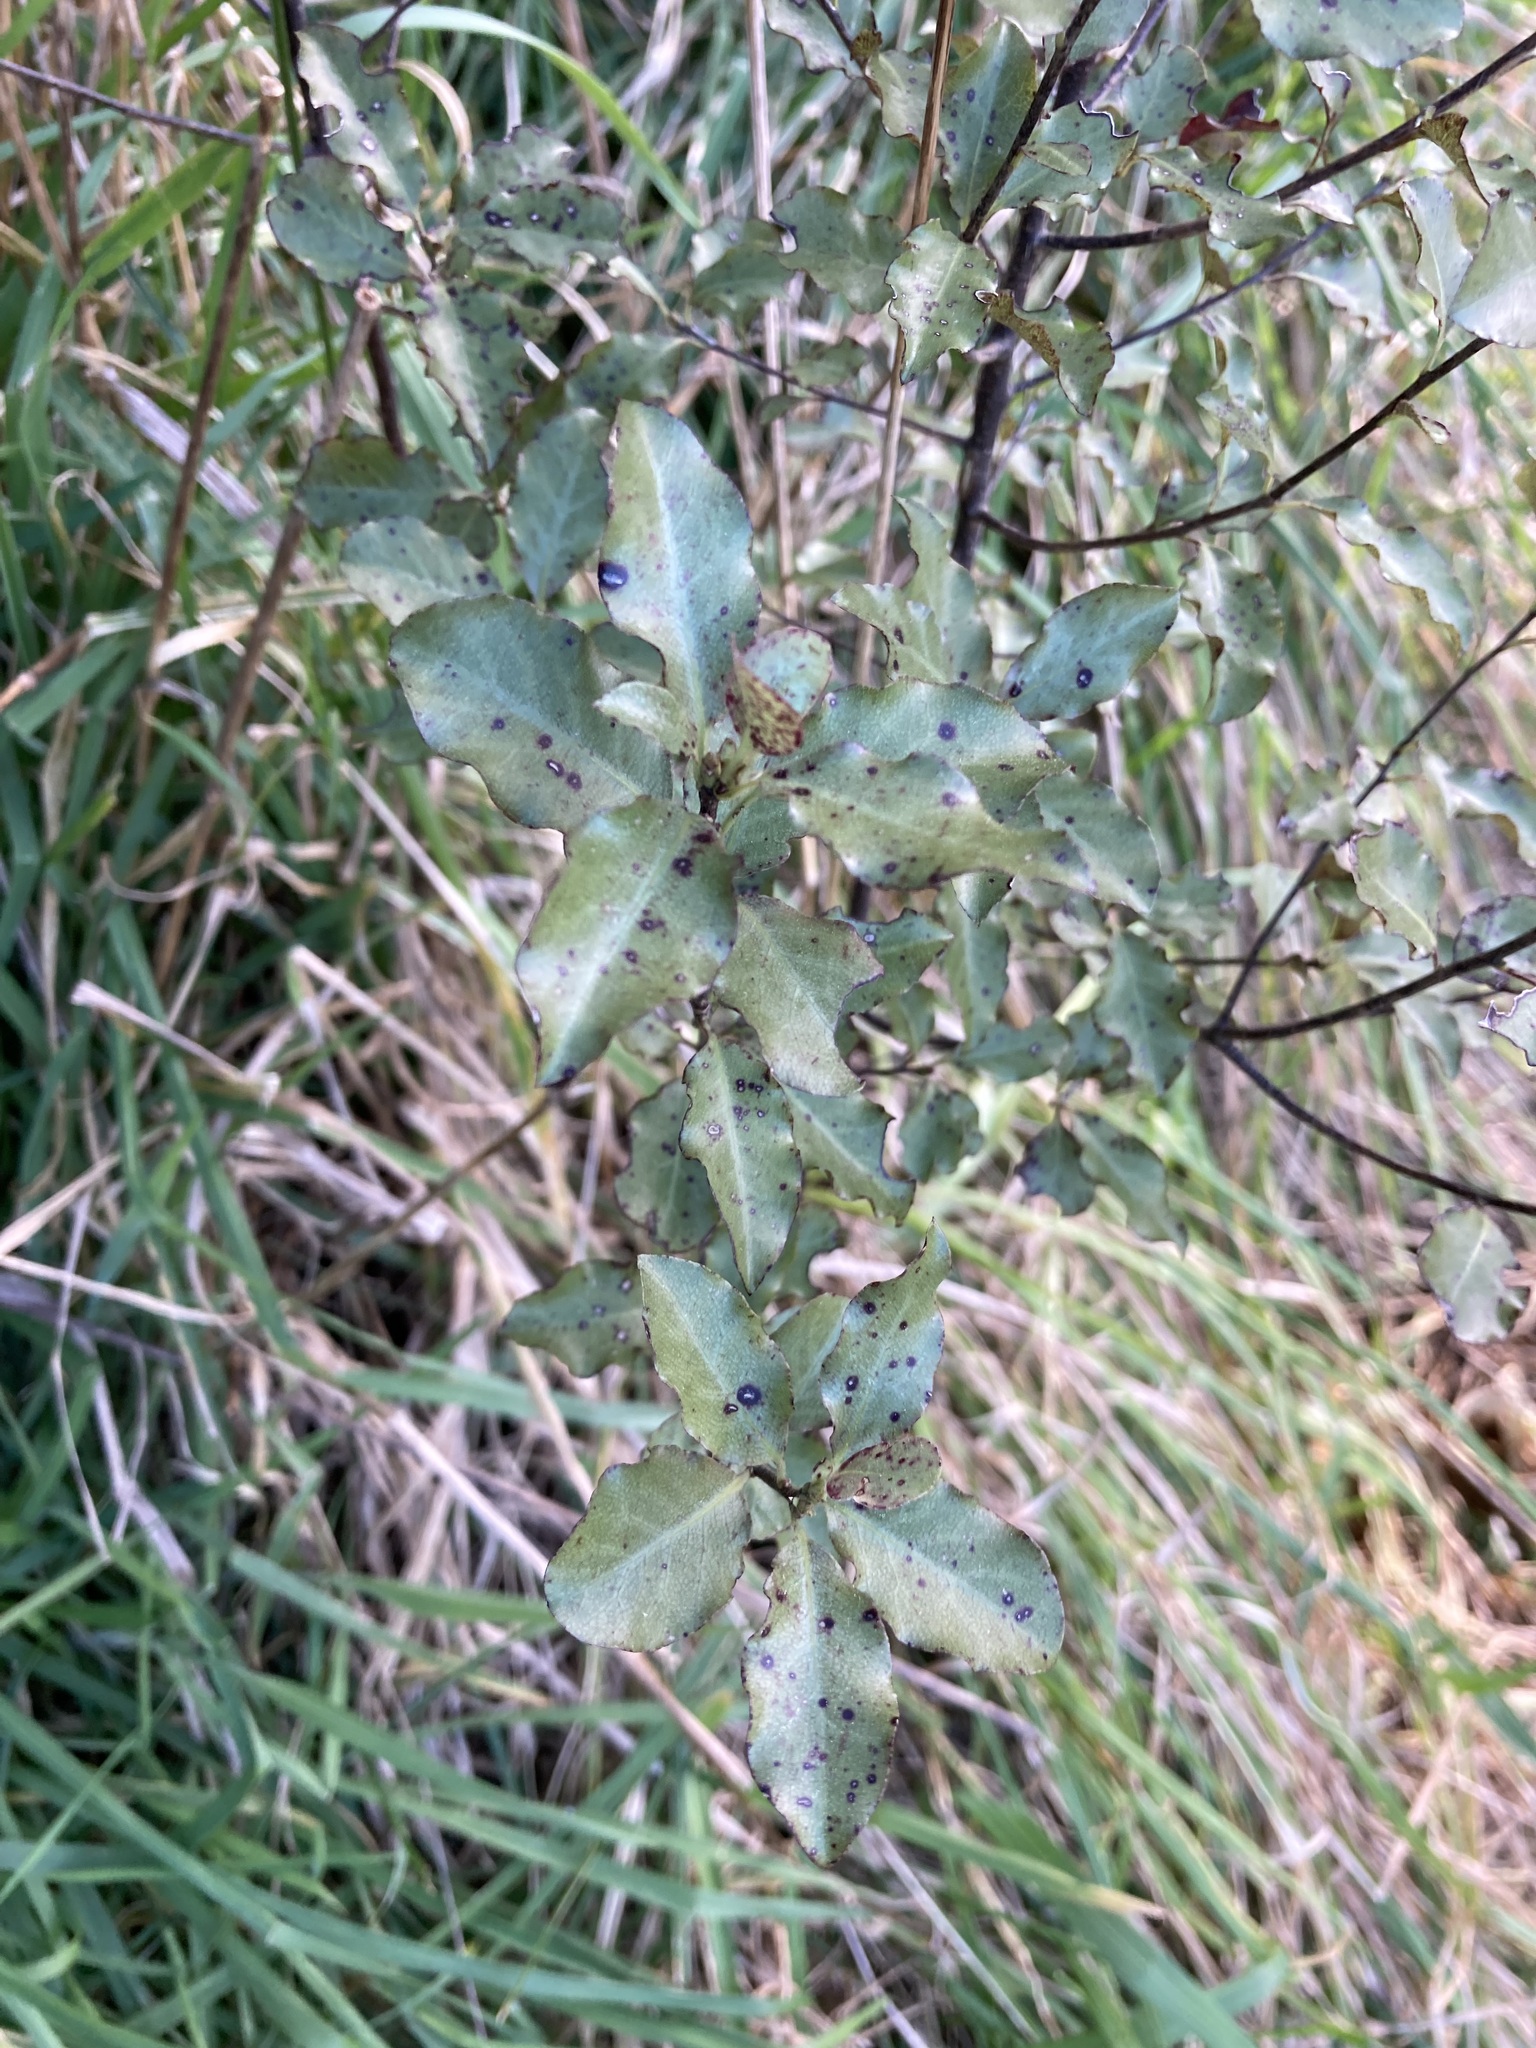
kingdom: Plantae
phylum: Tracheophyta
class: Magnoliopsida
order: Apiales
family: Pittosporaceae
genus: Pittosporum
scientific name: Pittosporum tenuifolium
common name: Kohuhu
